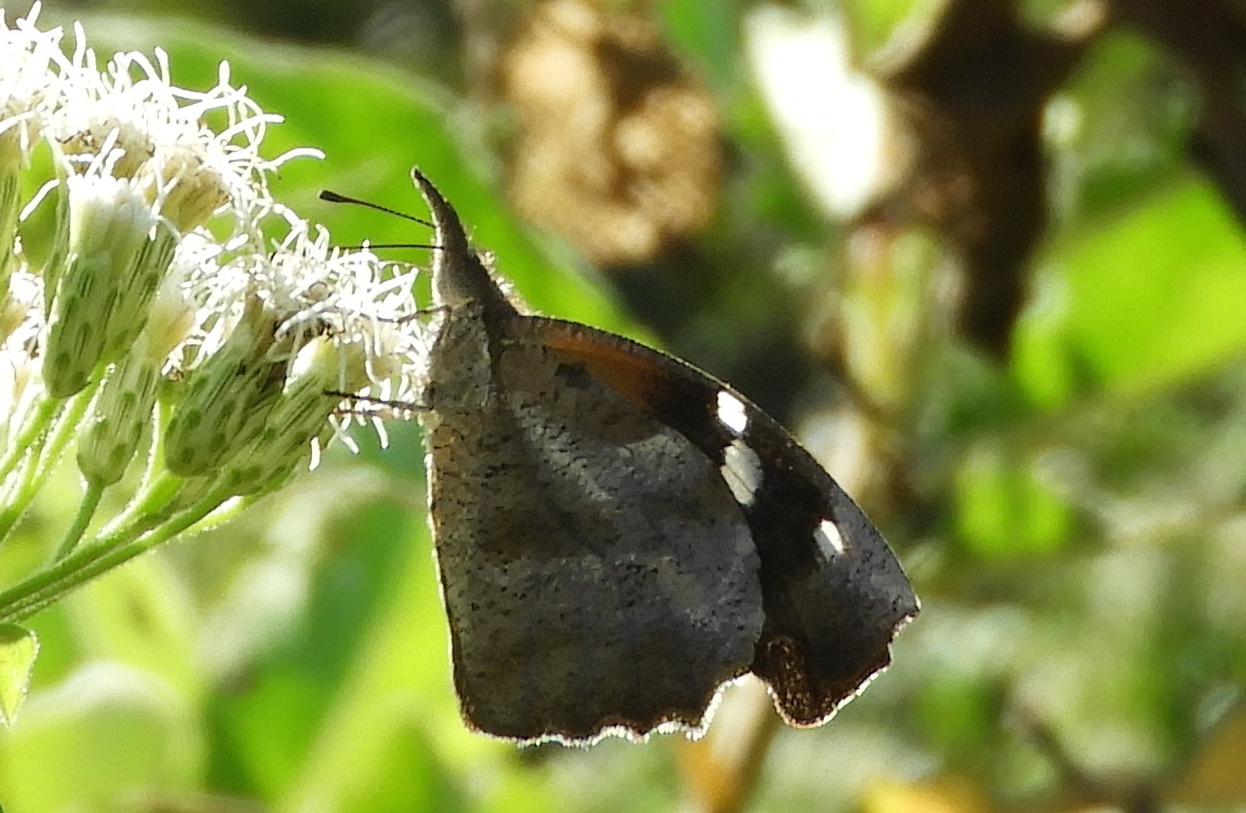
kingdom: Animalia
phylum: Arthropoda
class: Insecta
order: Lepidoptera
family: Nymphalidae
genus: Libytheana
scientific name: Libytheana carinenta
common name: American snout
